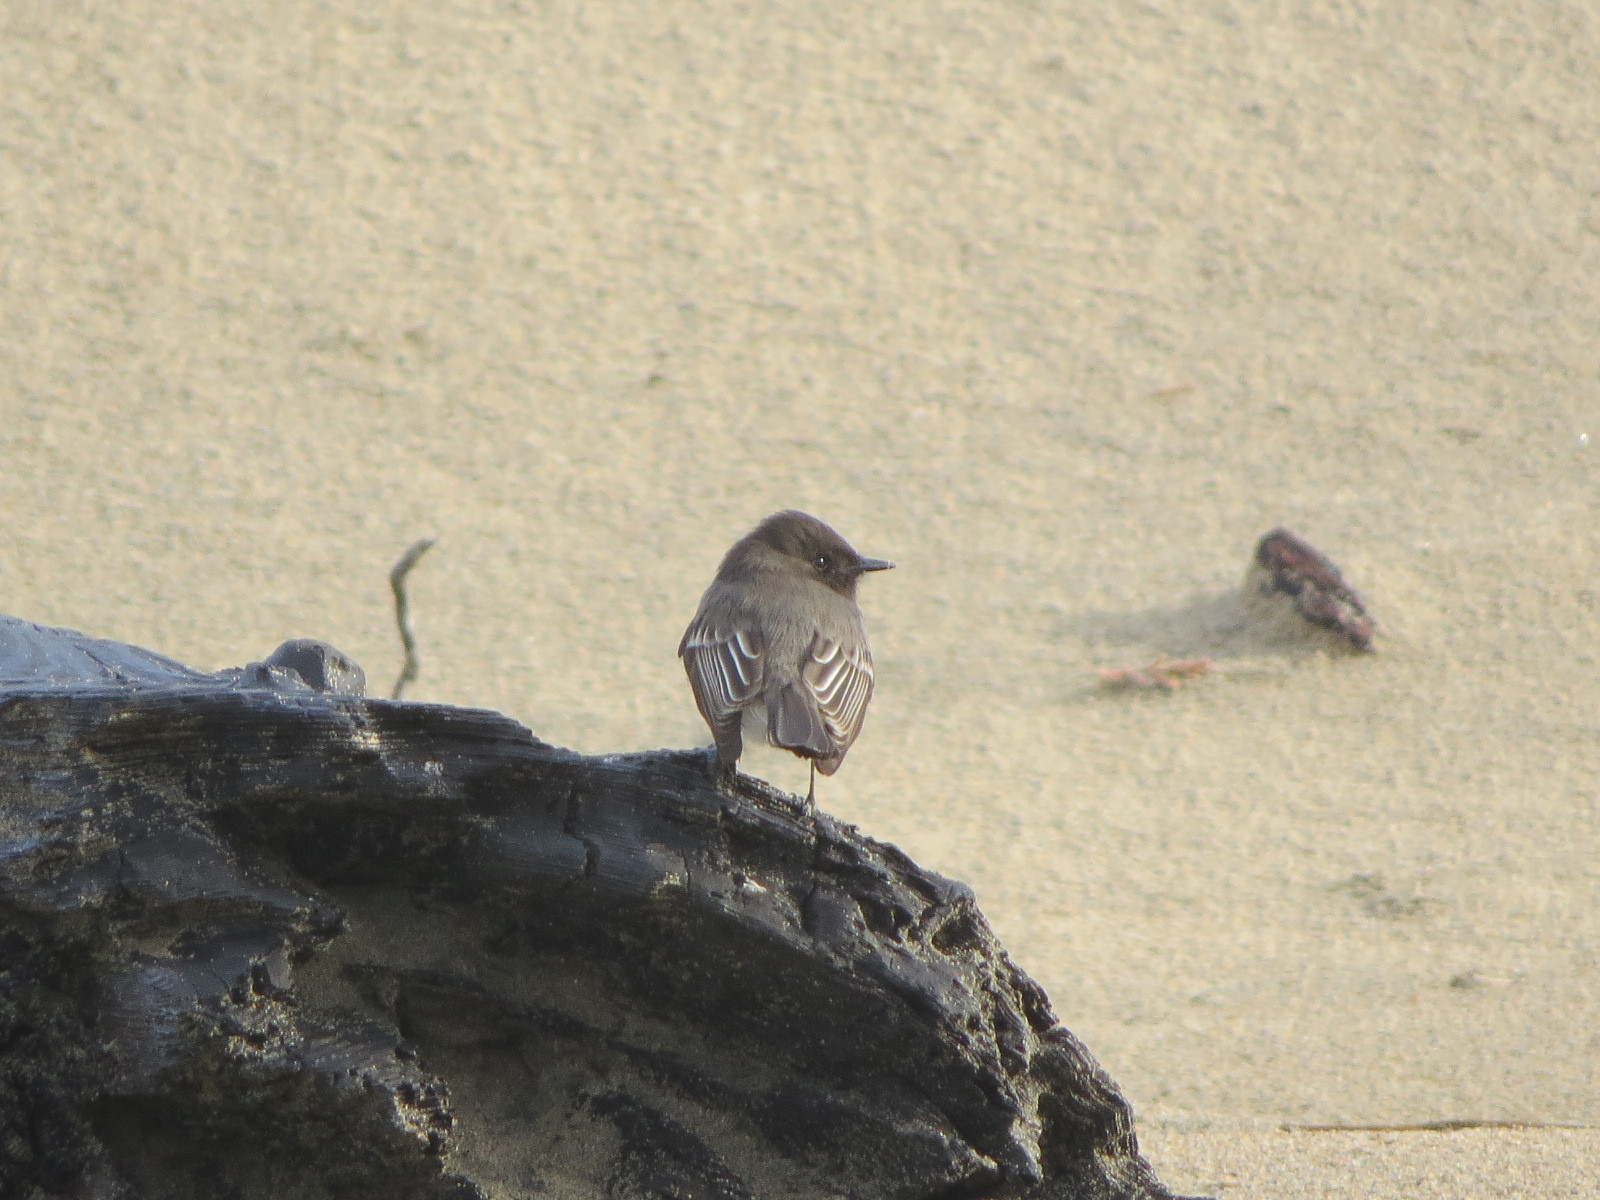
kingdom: Animalia
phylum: Chordata
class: Aves
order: Passeriformes
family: Tyrannidae
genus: Sayornis
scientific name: Sayornis nigricans
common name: Black phoebe
